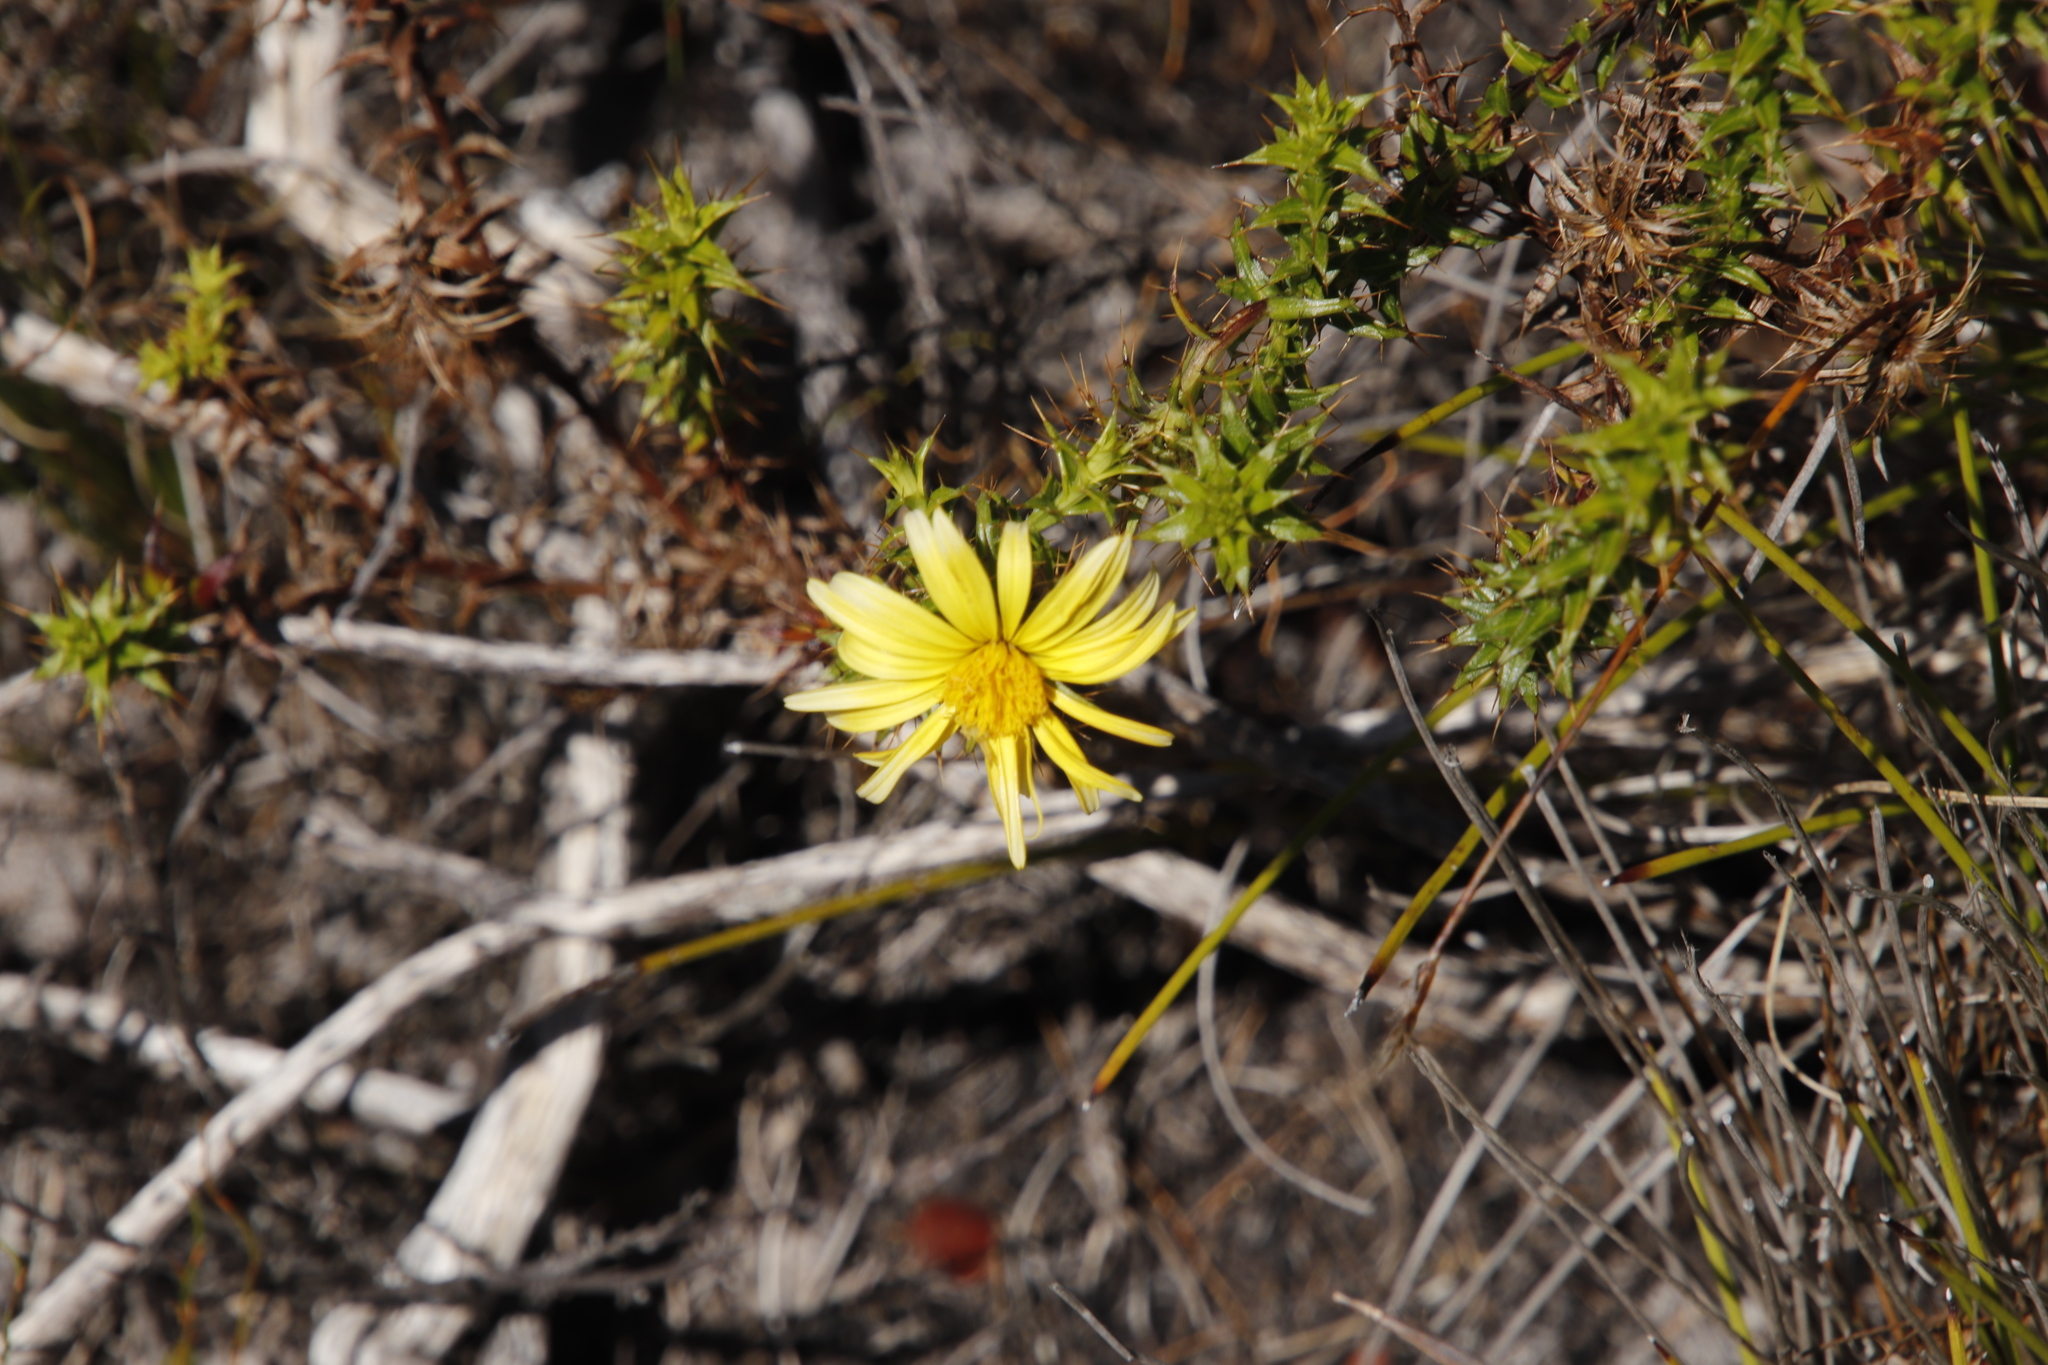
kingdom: Plantae
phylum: Tracheophyta
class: Magnoliopsida
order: Asterales
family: Asteraceae
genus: Cullumia
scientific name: Cullumia setosa
